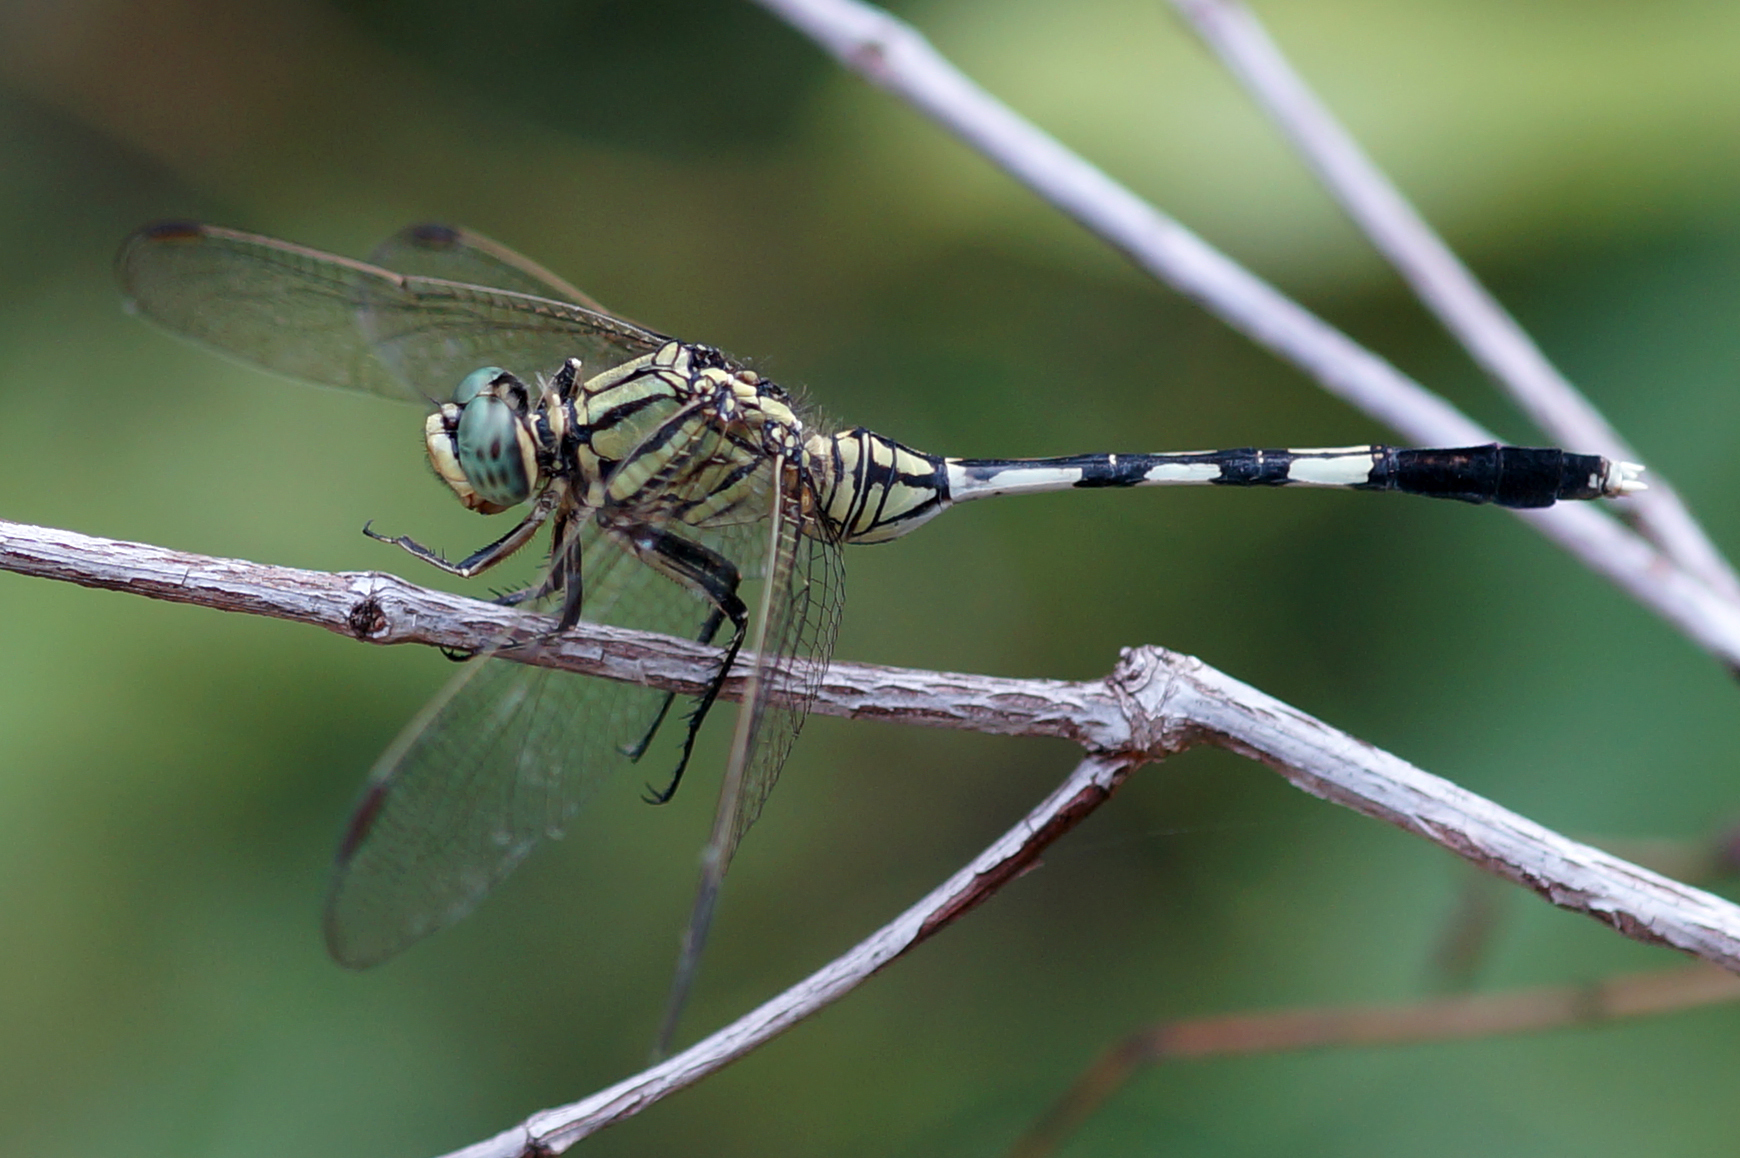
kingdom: Animalia
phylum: Arthropoda
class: Insecta
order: Odonata
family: Libellulidae
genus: Orthetrum
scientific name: Orthetrum sabina
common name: Slender skimmer
